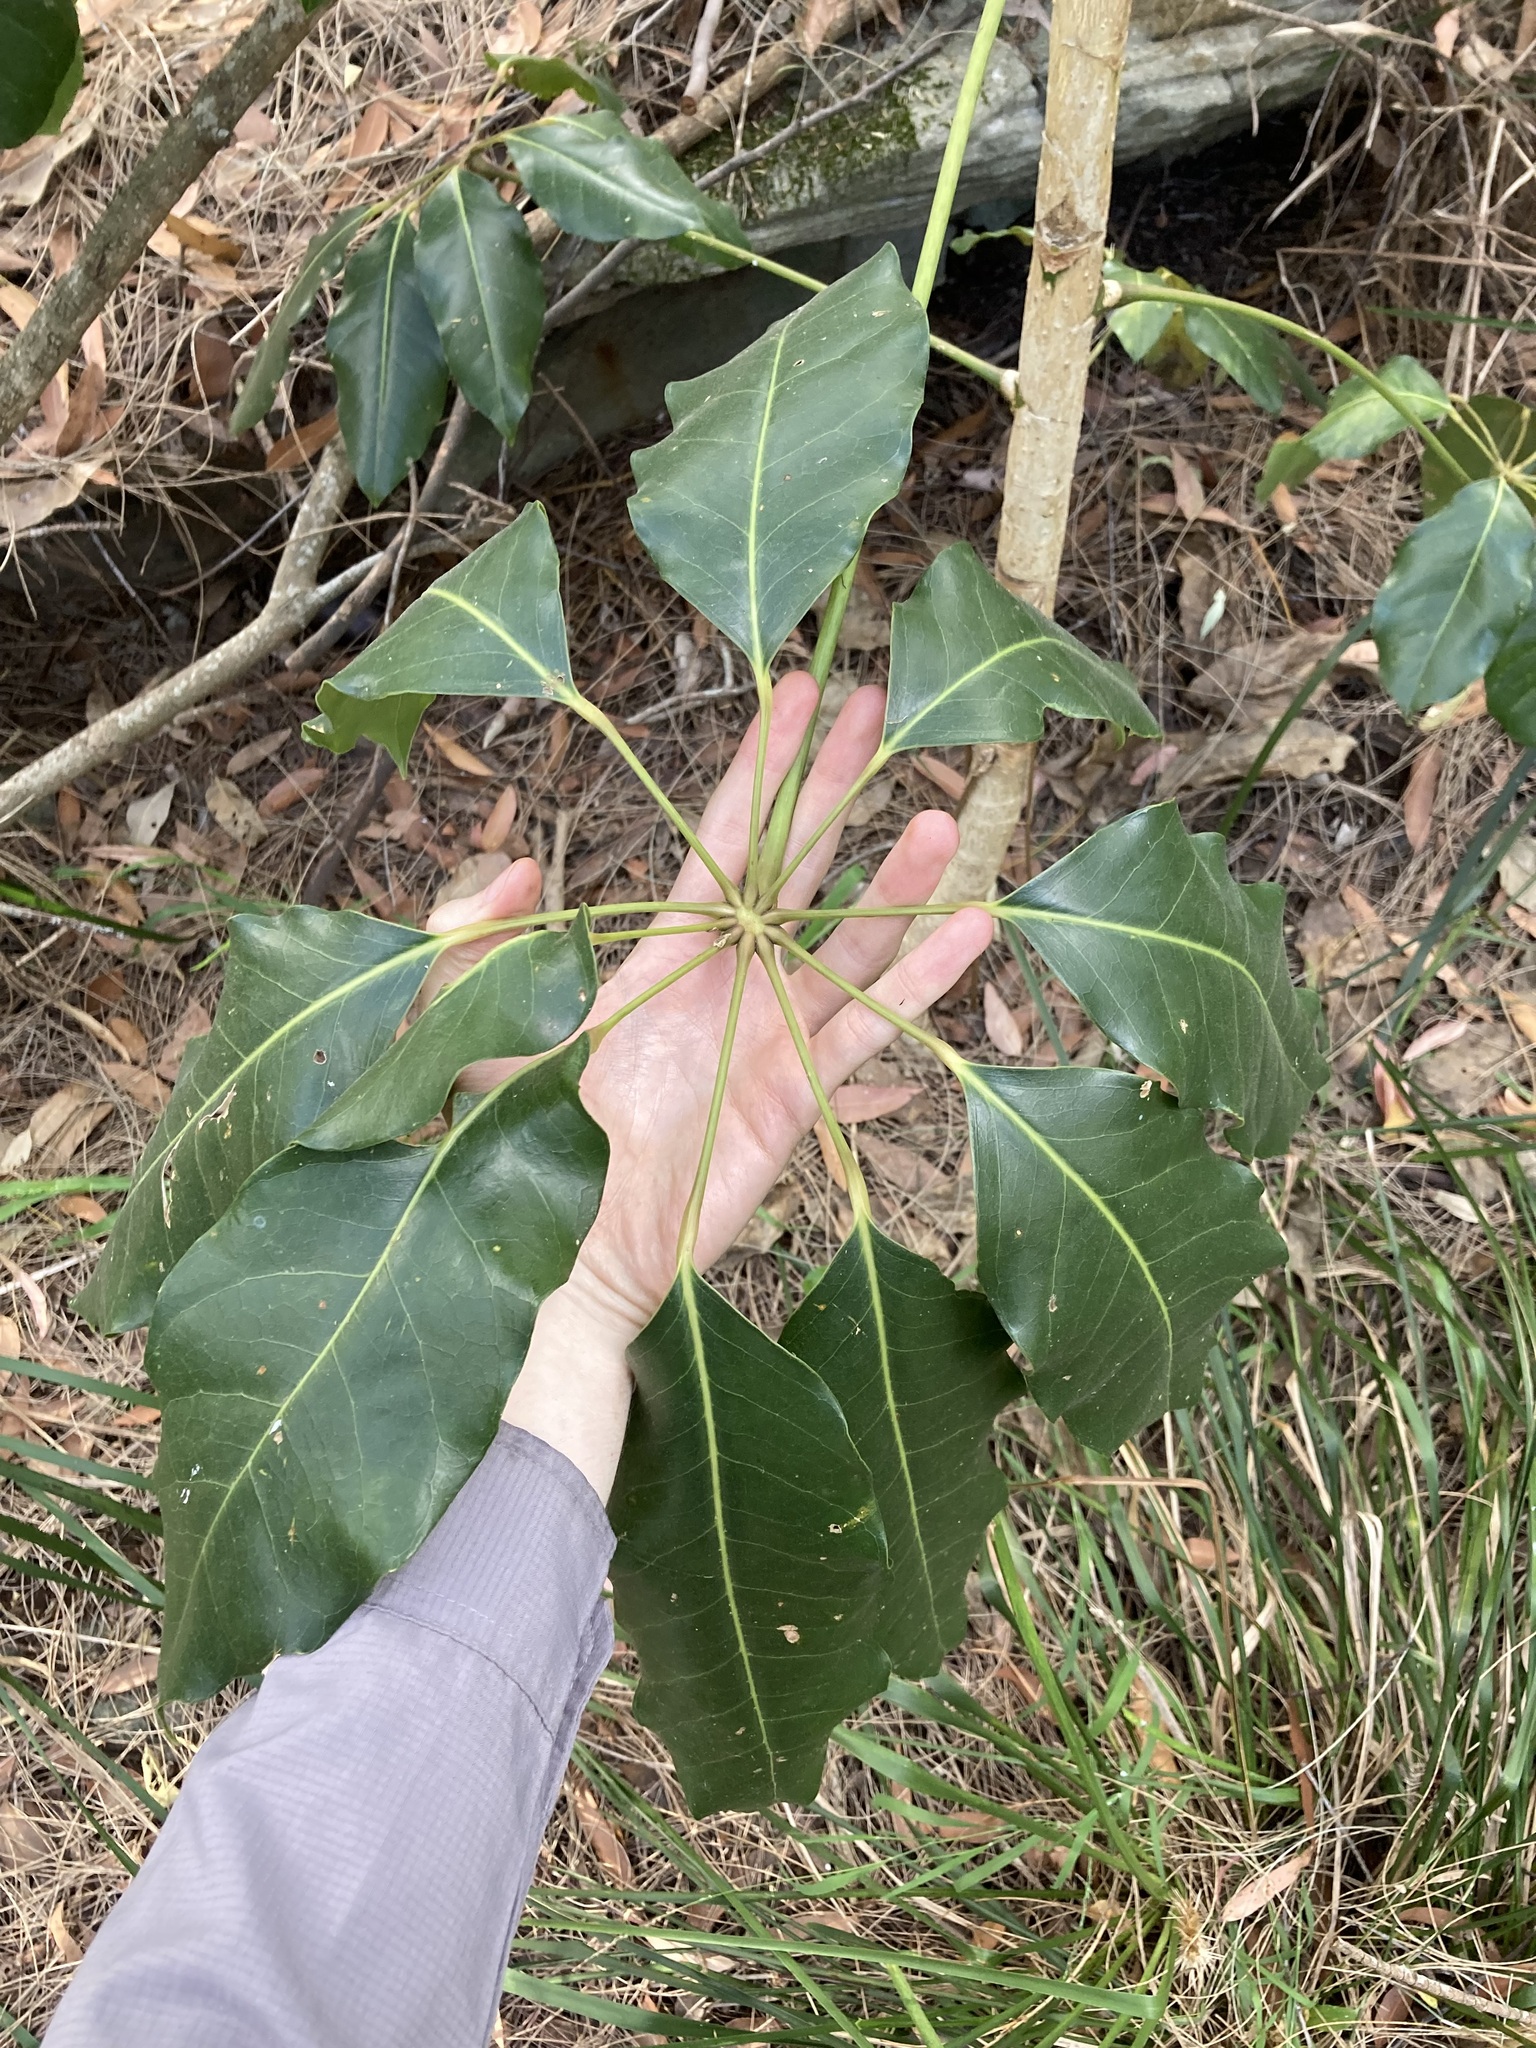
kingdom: Plantae
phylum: Tracheophyta
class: Magnoliopsida
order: Apiales
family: Araliaceae
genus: Heptapleurum
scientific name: Heptapleurum actinophyllum
